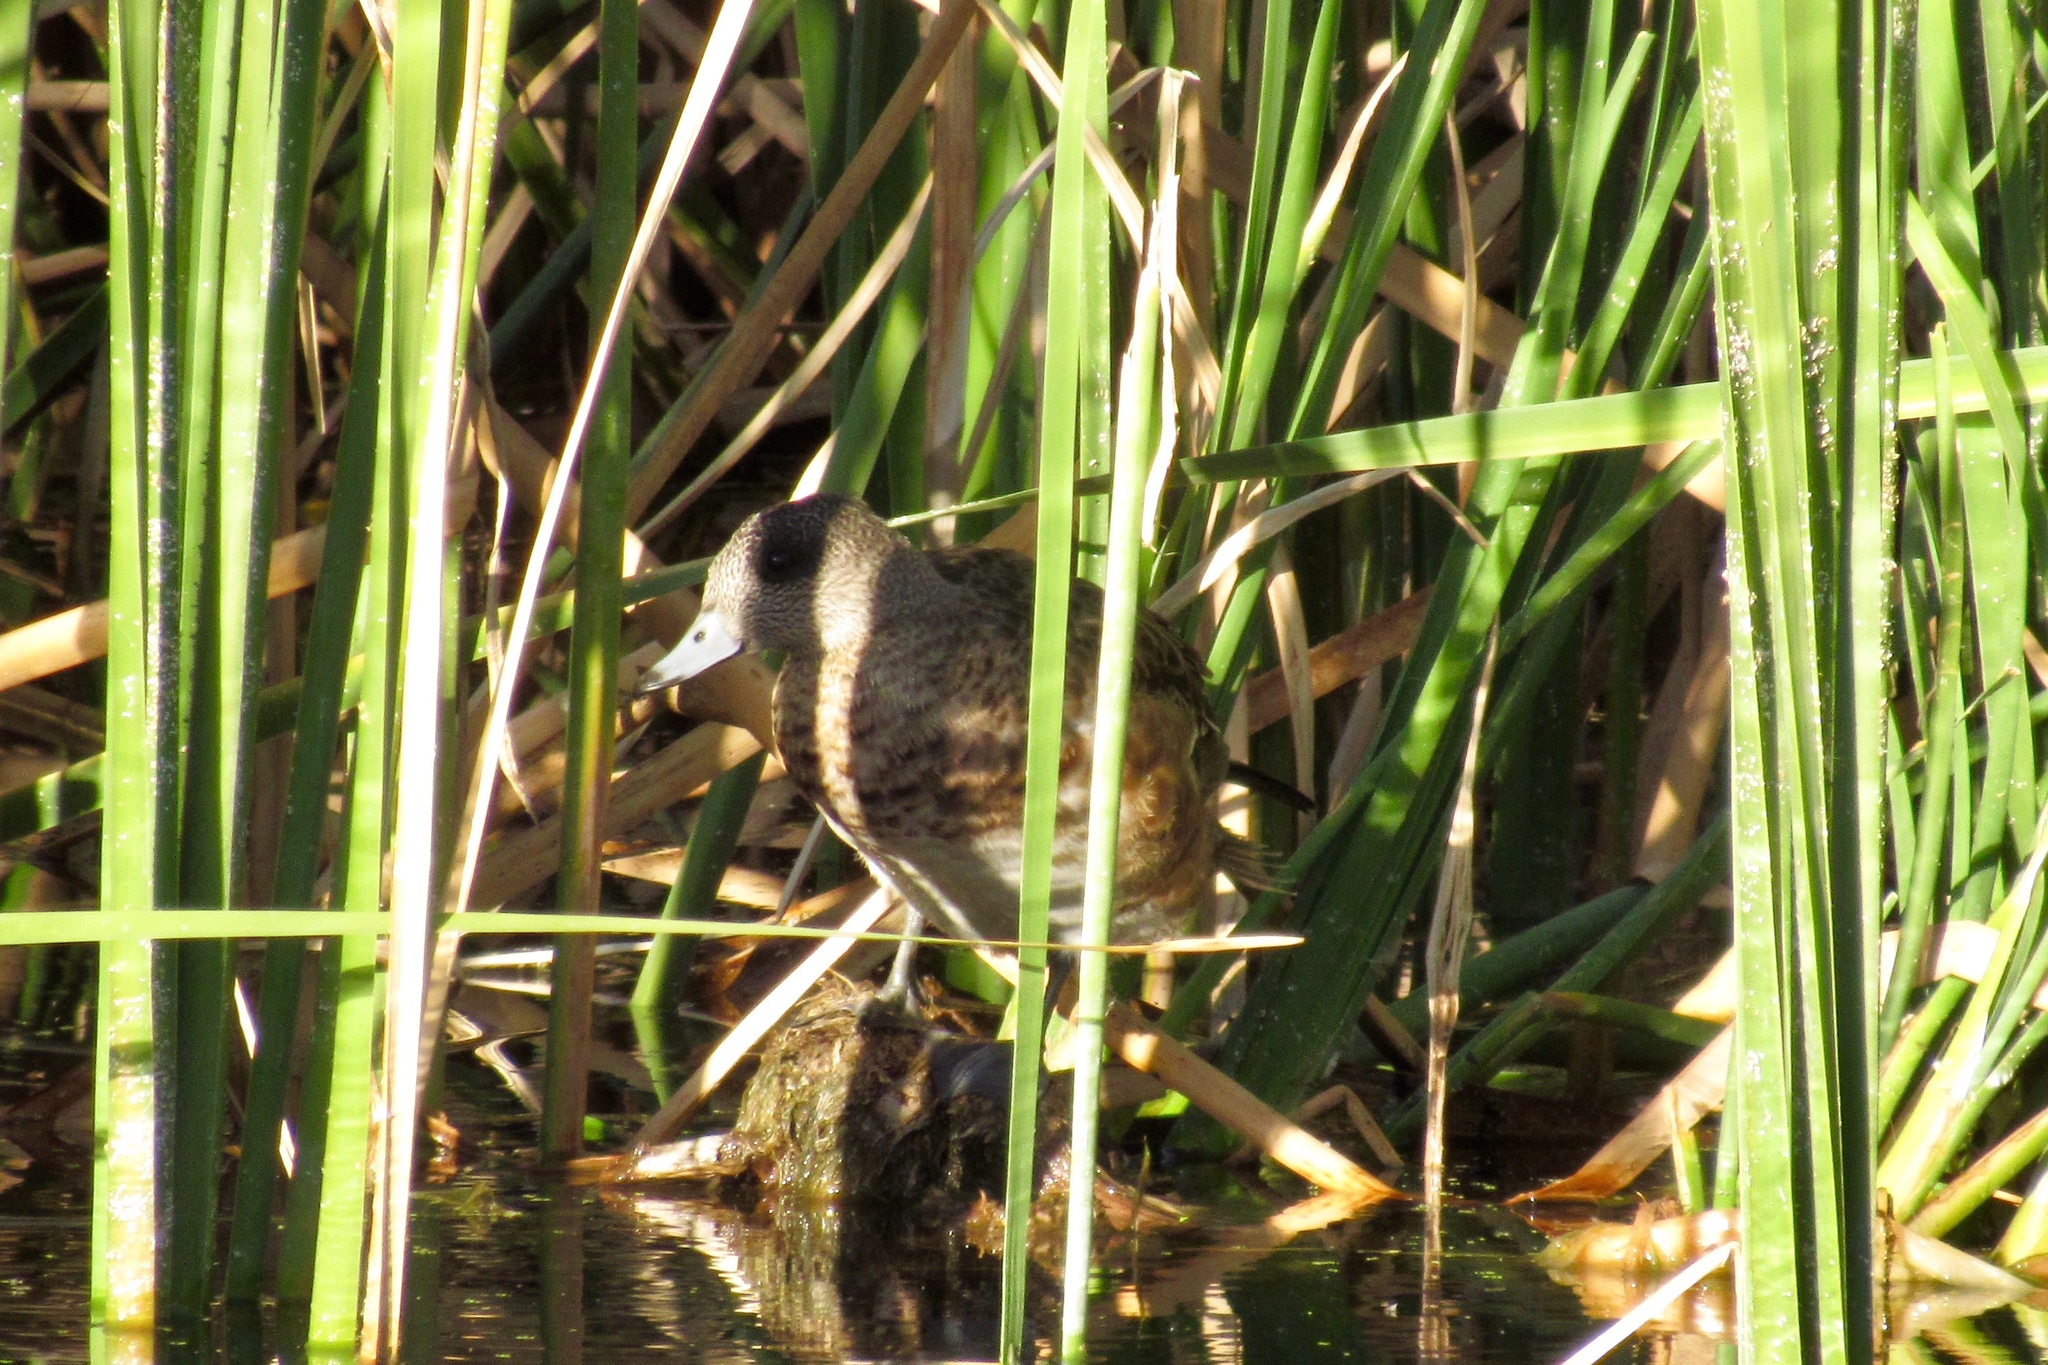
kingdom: Animalia
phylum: Chordata
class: Aves
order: Anseriformes
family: Anatidae
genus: Mareca
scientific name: Mareca americana
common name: American wigeon
